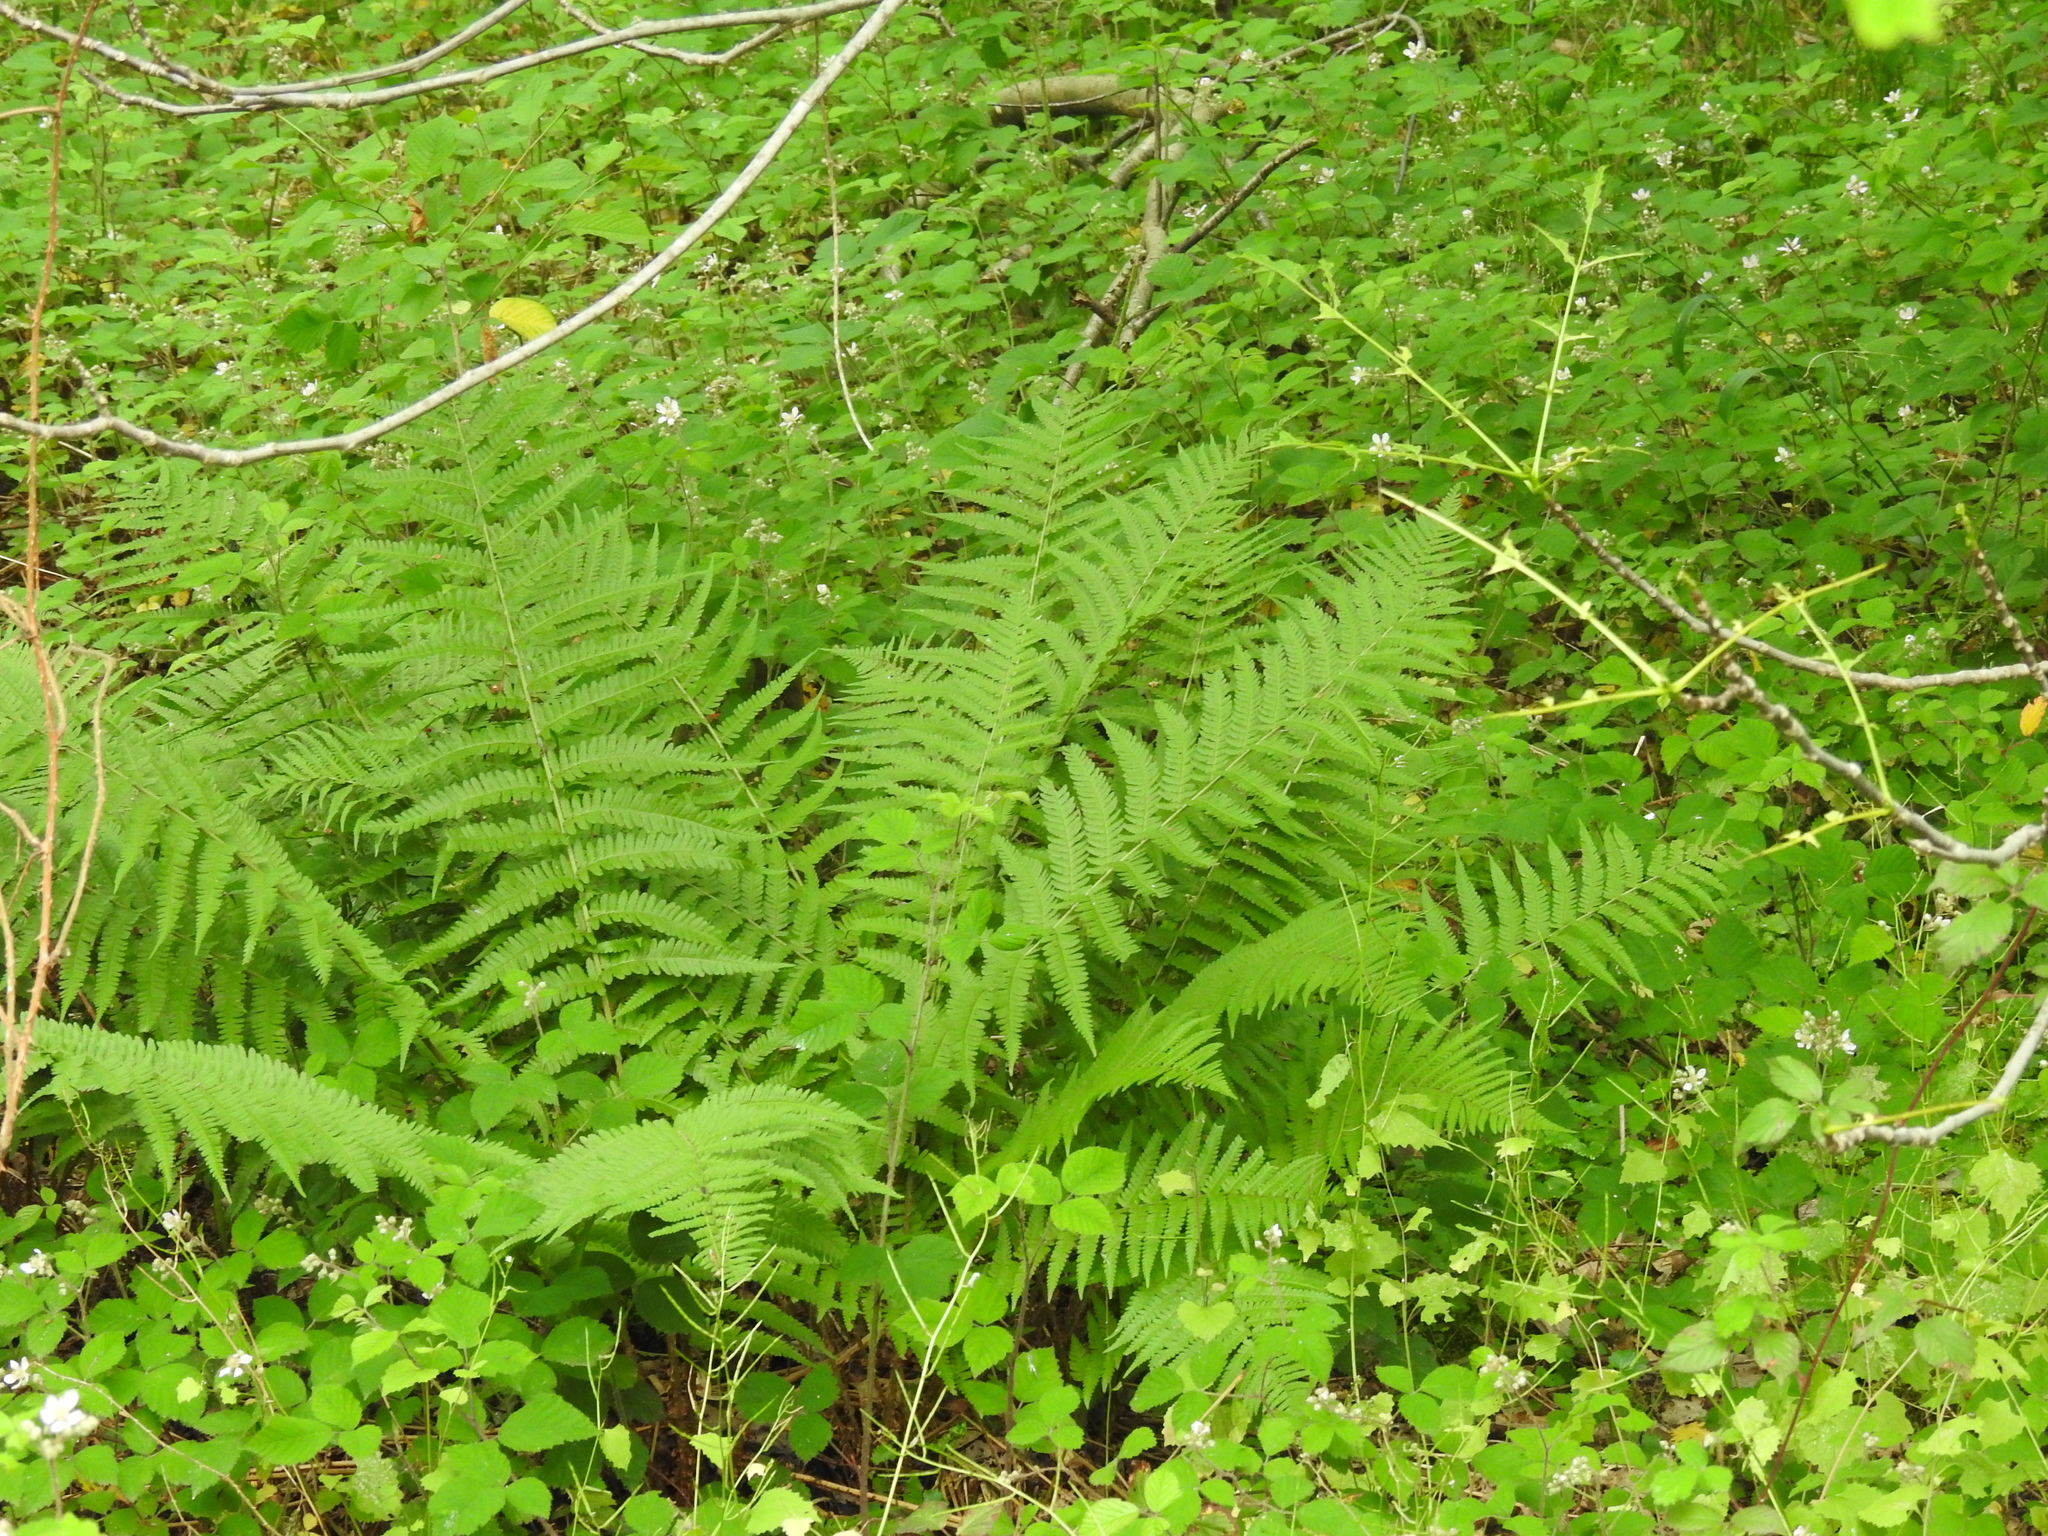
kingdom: Plantae
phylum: Tracheophyta
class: Polypodiopsida
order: Polypodiales
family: Dryopteridaceae
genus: Dryopteris
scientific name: Dryopteris filix-mas
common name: Male fern
